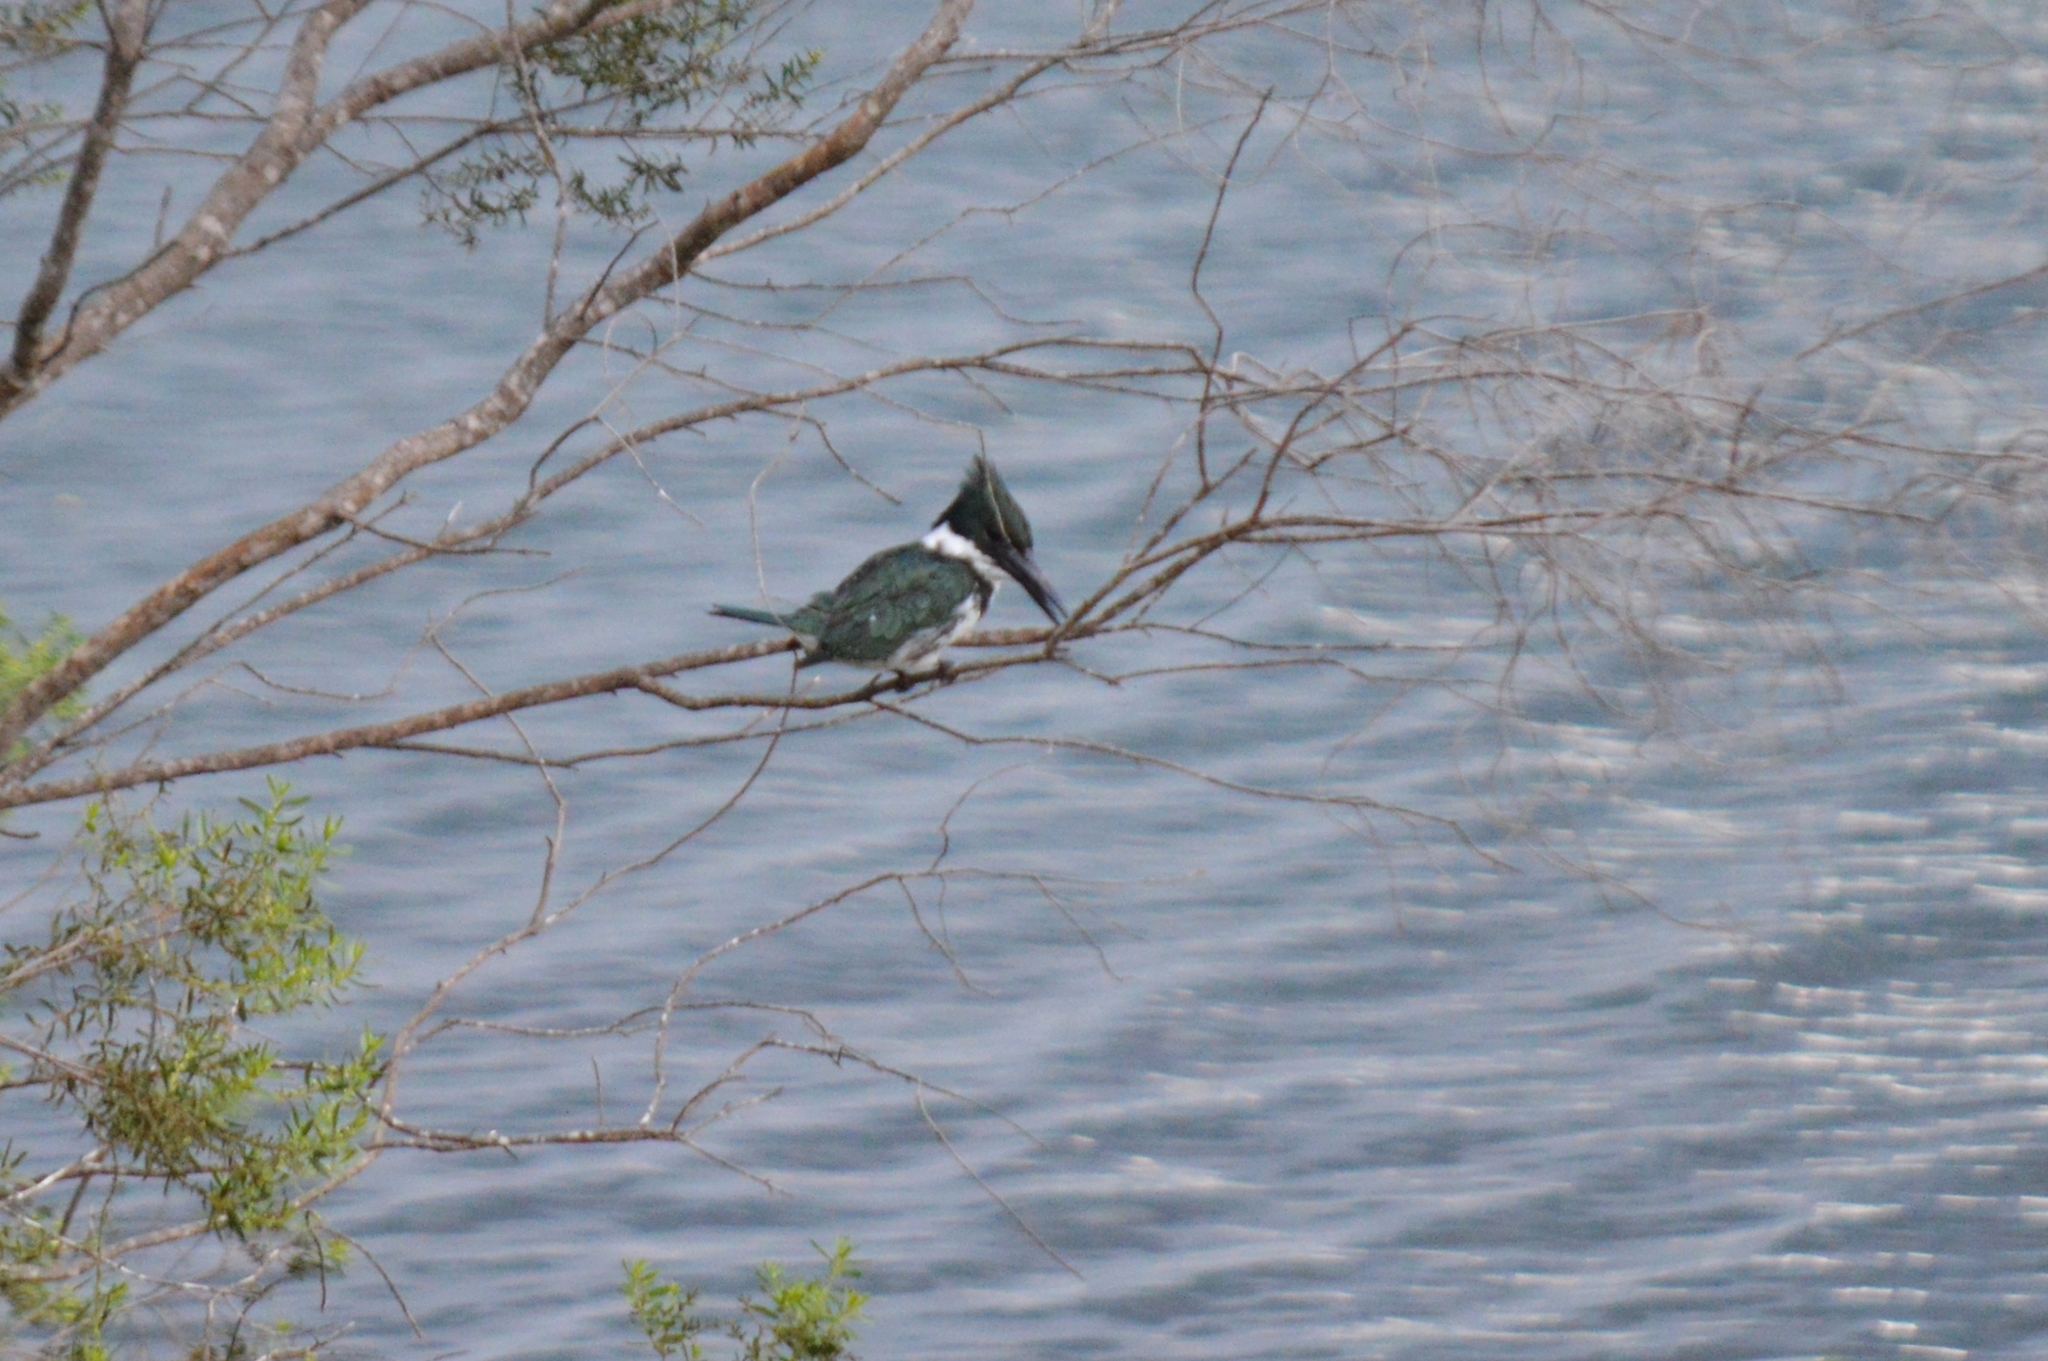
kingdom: Animalia
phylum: Chordata
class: Aves
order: Coraciiformes
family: Alcedinidae
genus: Chloroceryle
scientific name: Chloroceryle amazona
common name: Amazon kingfisher
